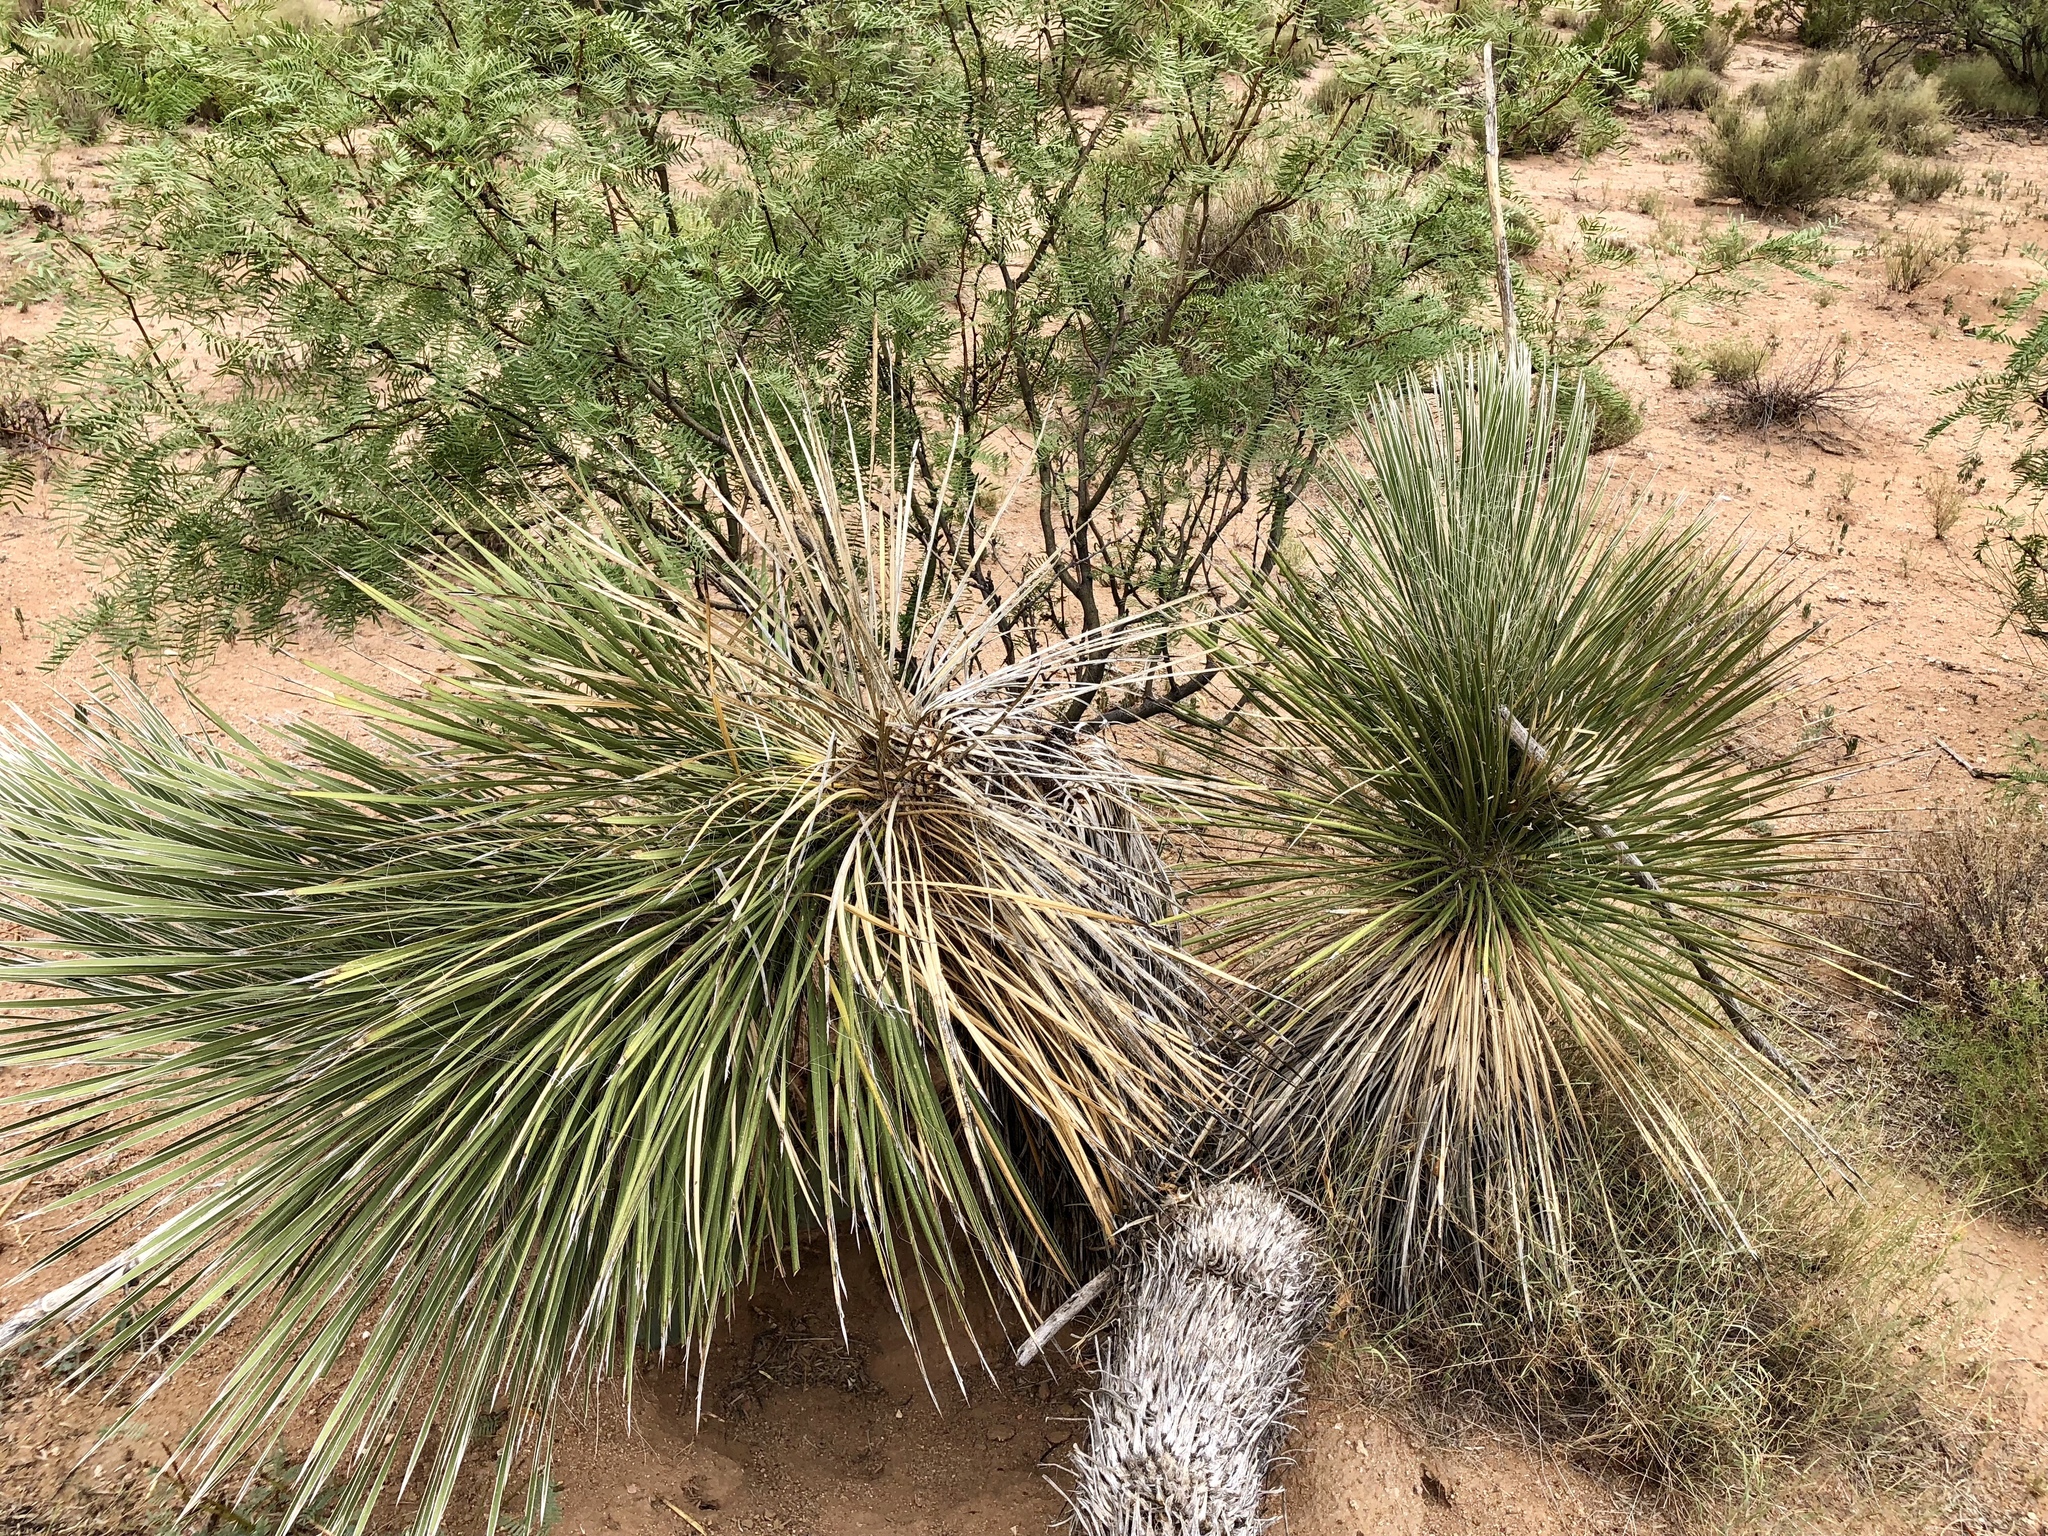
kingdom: Plantae
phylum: Tracheophyta
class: Liliopsida
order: Asparagales
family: Asparagaceae
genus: Yucca
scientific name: Yucca elata
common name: Palmella
